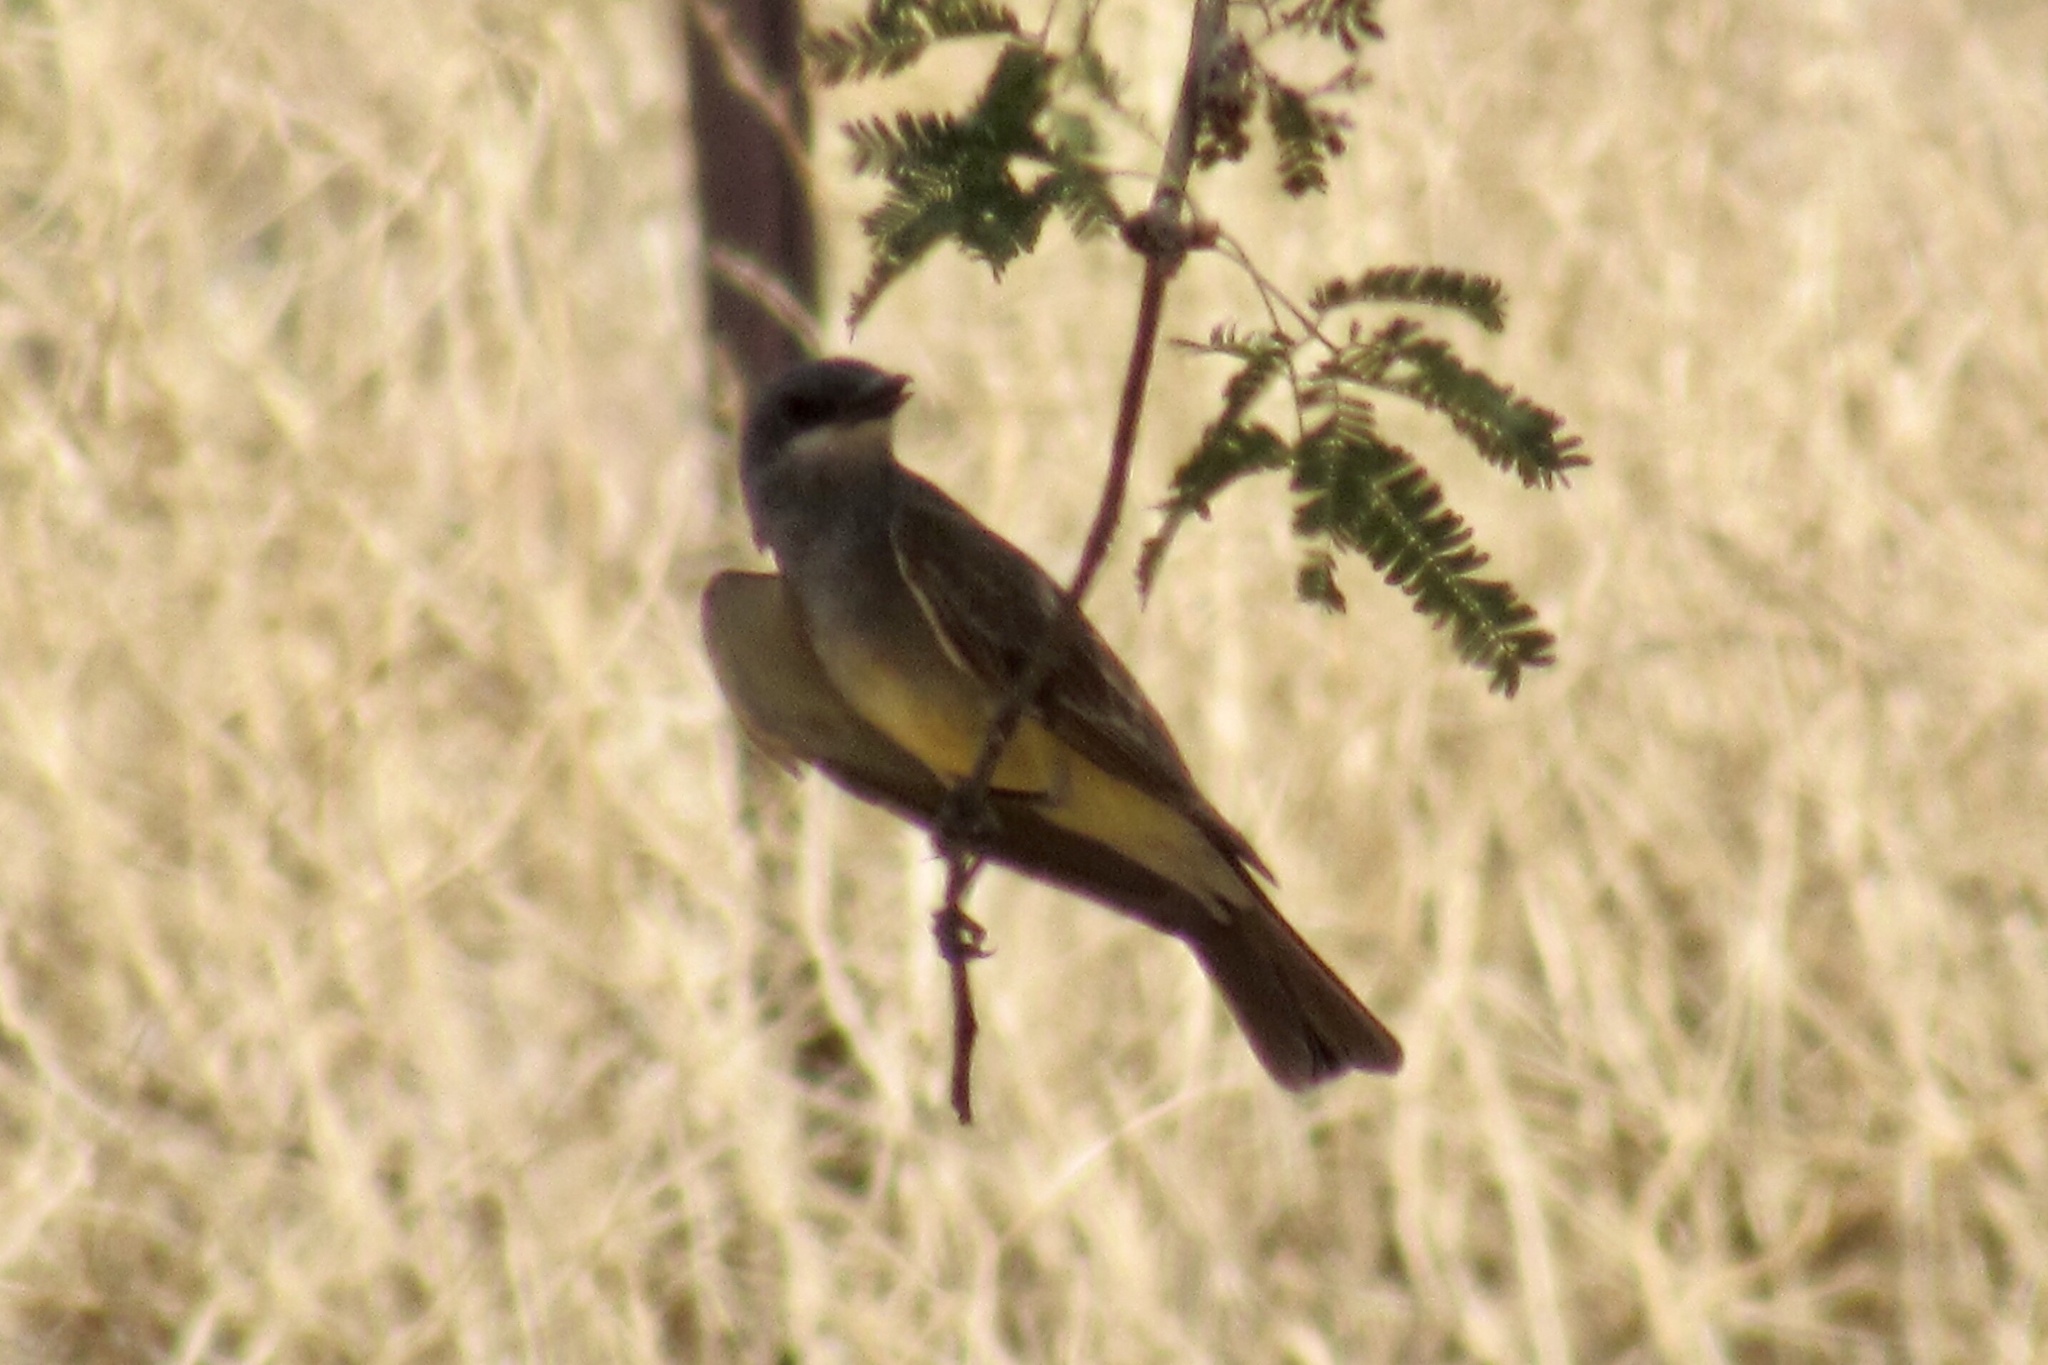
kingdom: Animalia
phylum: Chordata
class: Aves
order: Passeriformes
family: Tyrannidae
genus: Tyrannus
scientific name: Tyrannus vociferans
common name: Cassin's kingbird
